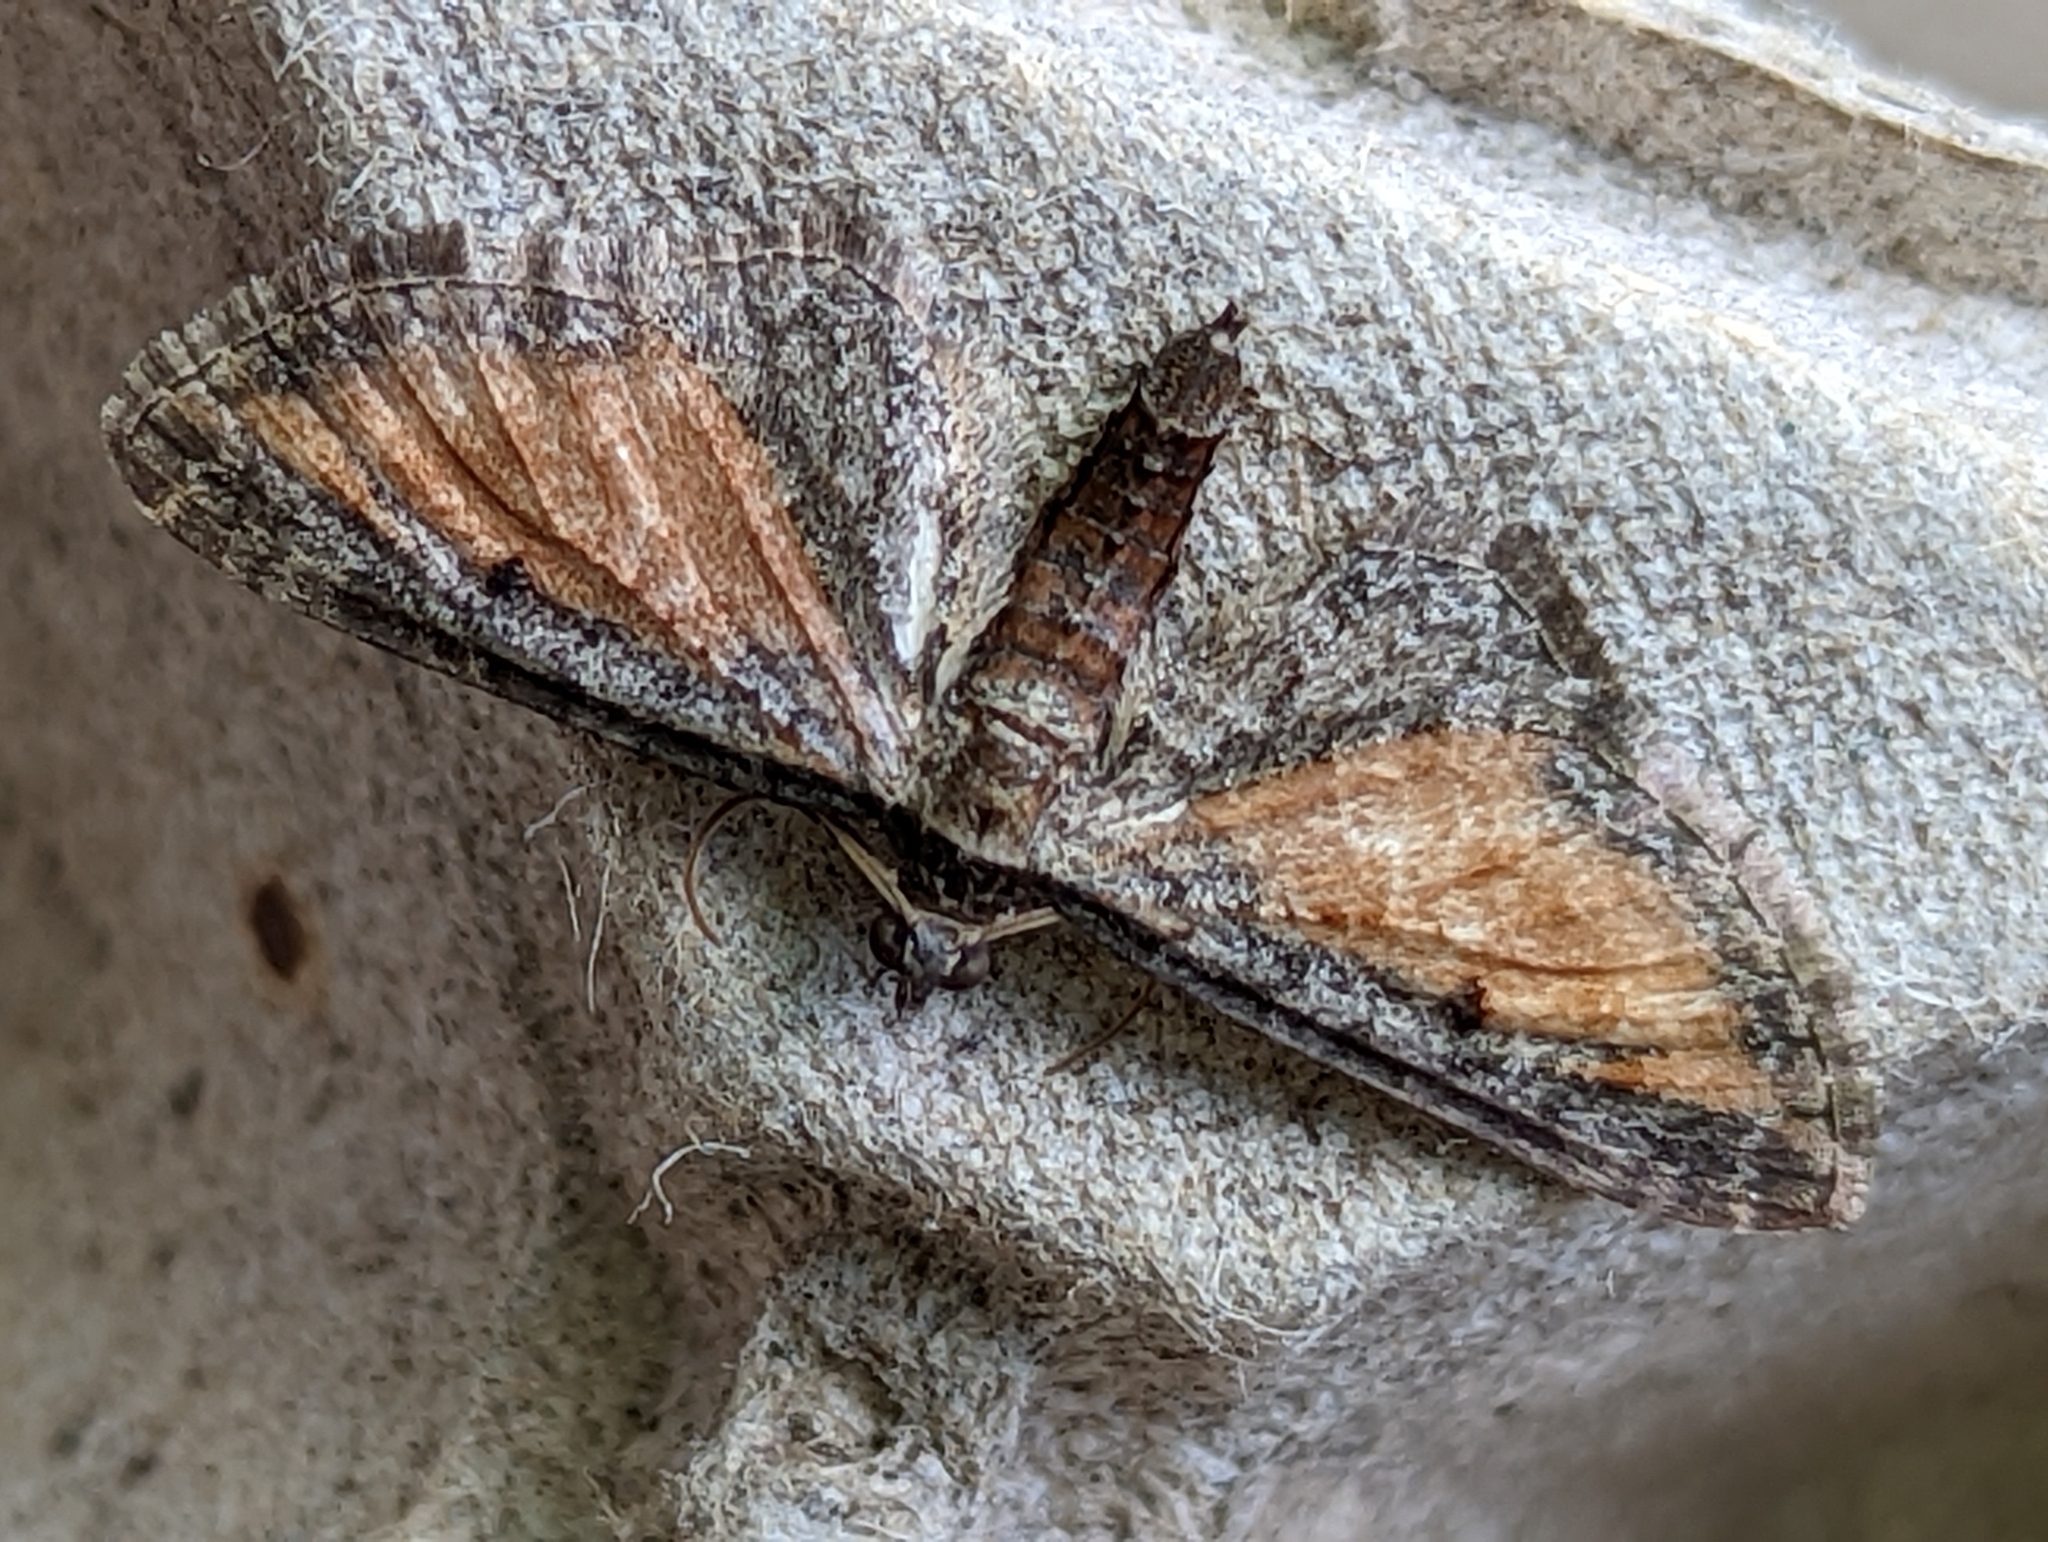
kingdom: Animalia
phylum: Arthropoda
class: Insecta
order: Lepidoptera
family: Geometridae
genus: Eupithecia
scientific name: Eupithecia icterata
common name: Tawny speckled pug
